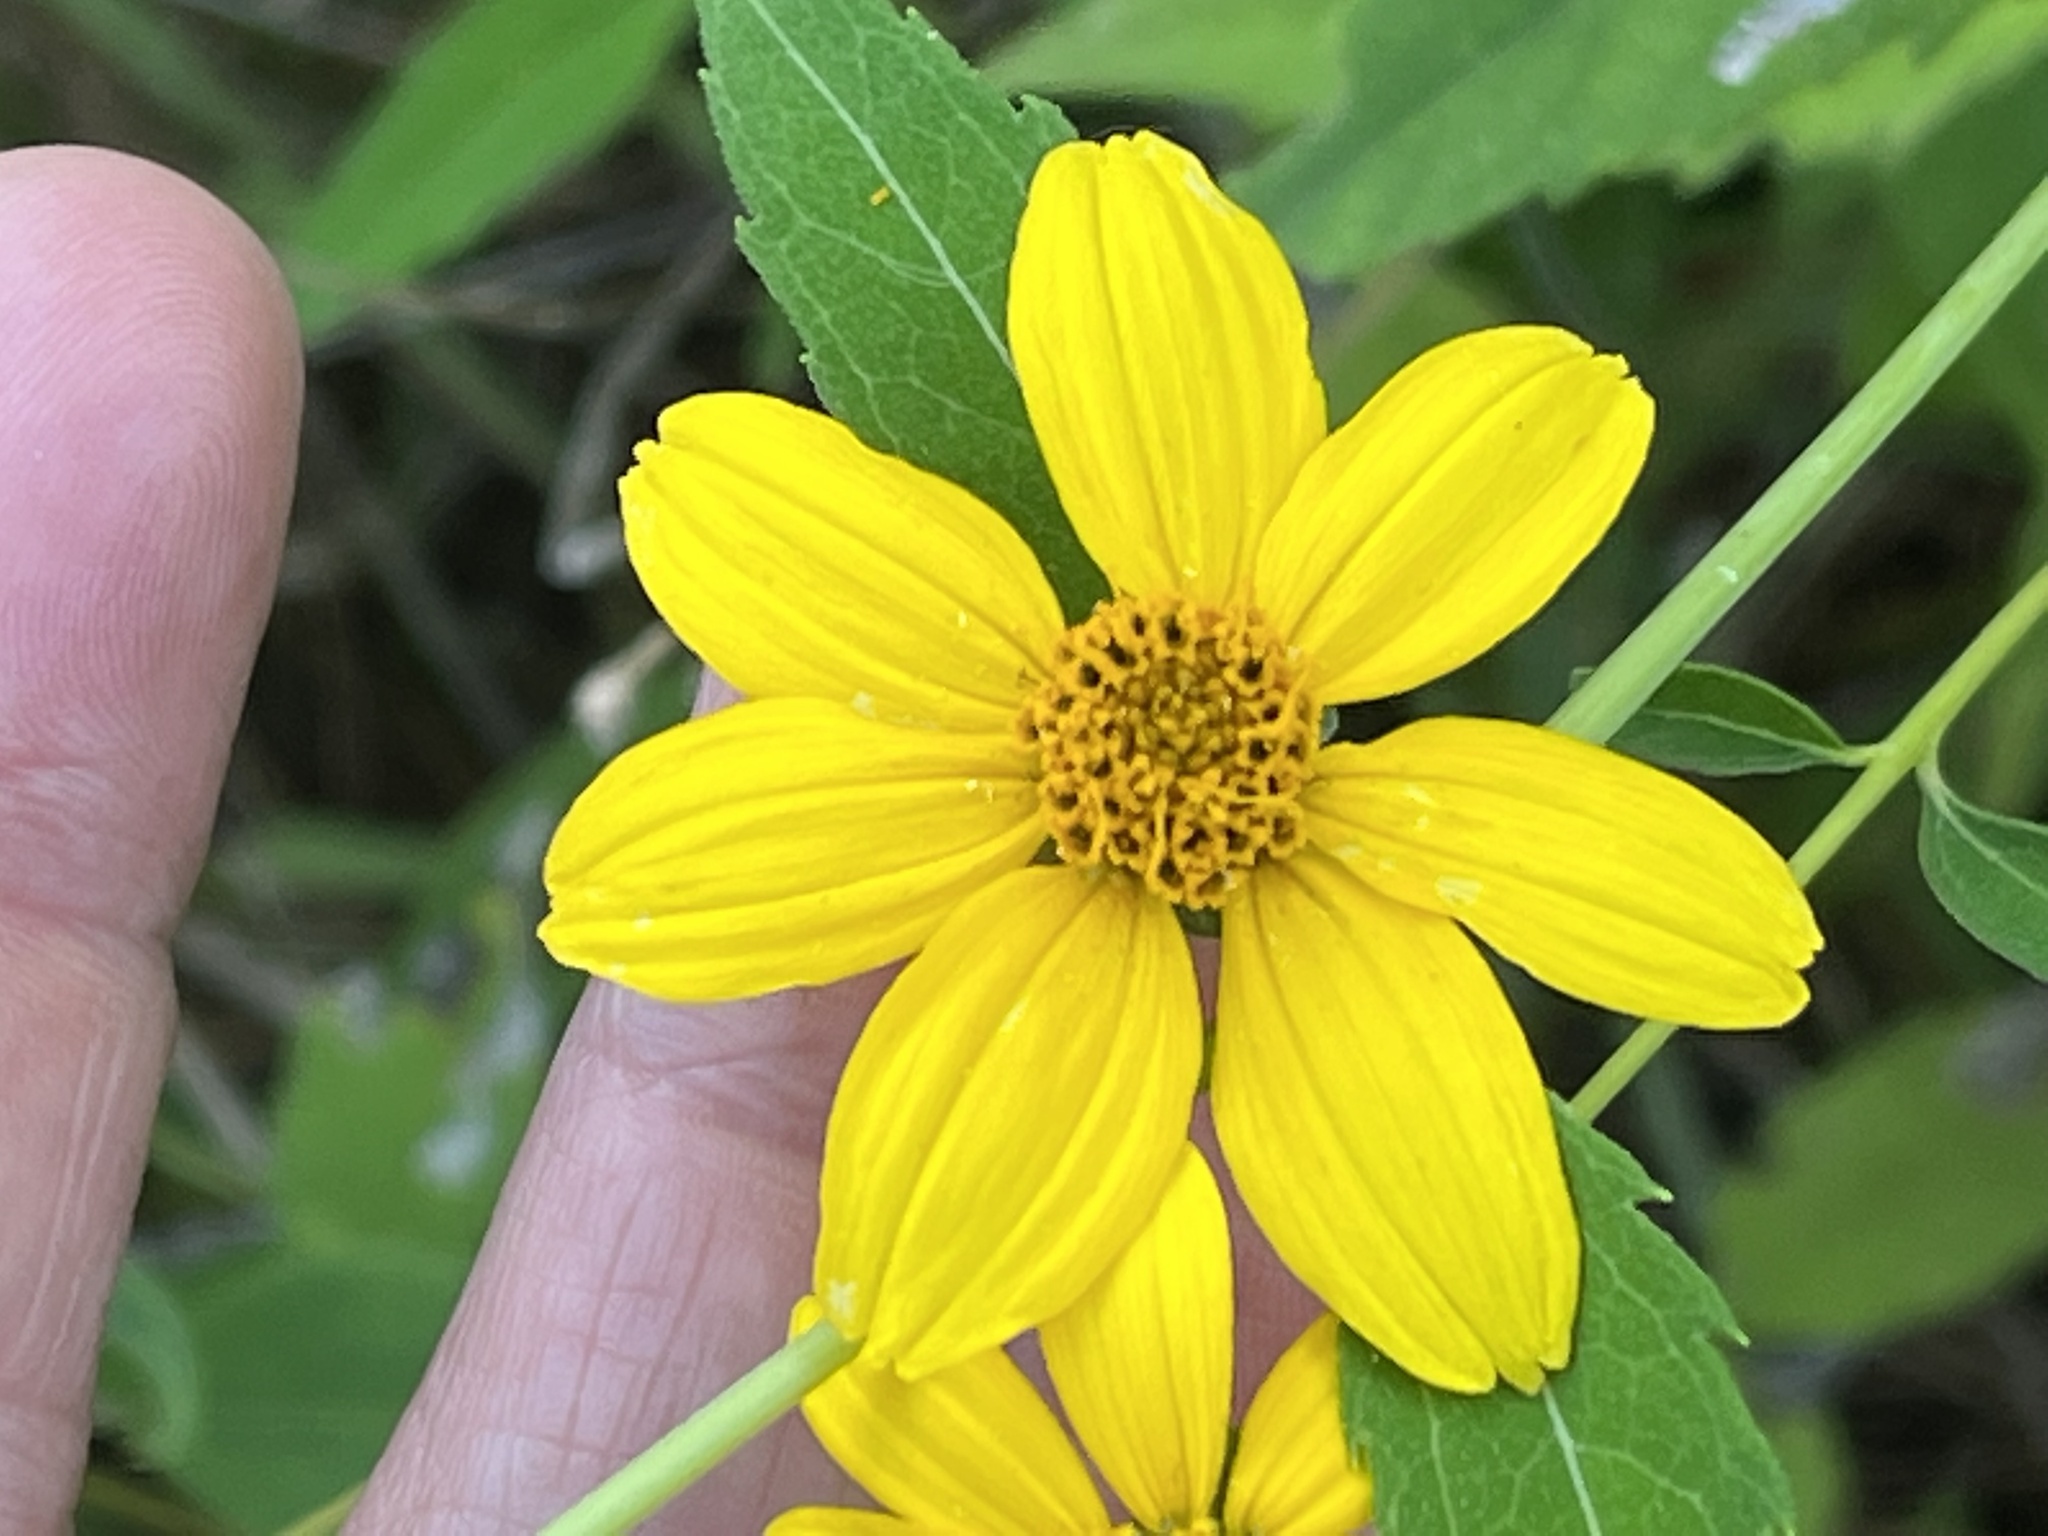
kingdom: Plantae
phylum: Tracheophyta
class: Magnoliopsida
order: Asterales
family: Asteraceae
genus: Heliopsis
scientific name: Heliopsis helianthoides
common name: False sunflower
